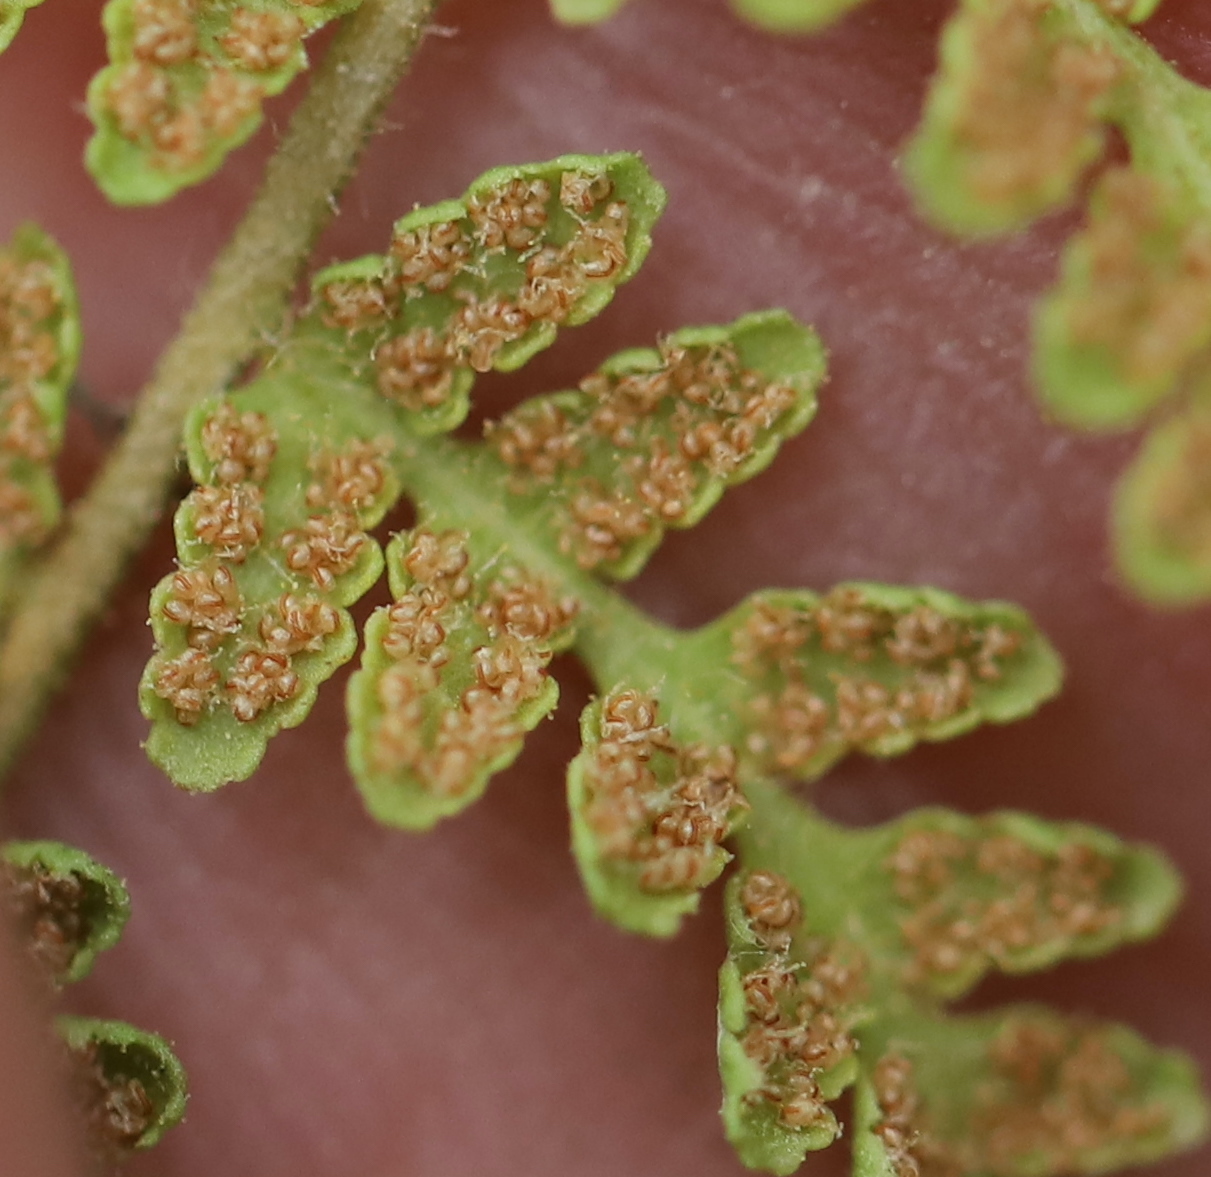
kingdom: Plantae
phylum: Tracheophyta
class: Polypodiopsida
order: Polypodiales
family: Woodsiaceae
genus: Physematium
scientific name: Physematium scopulinum
